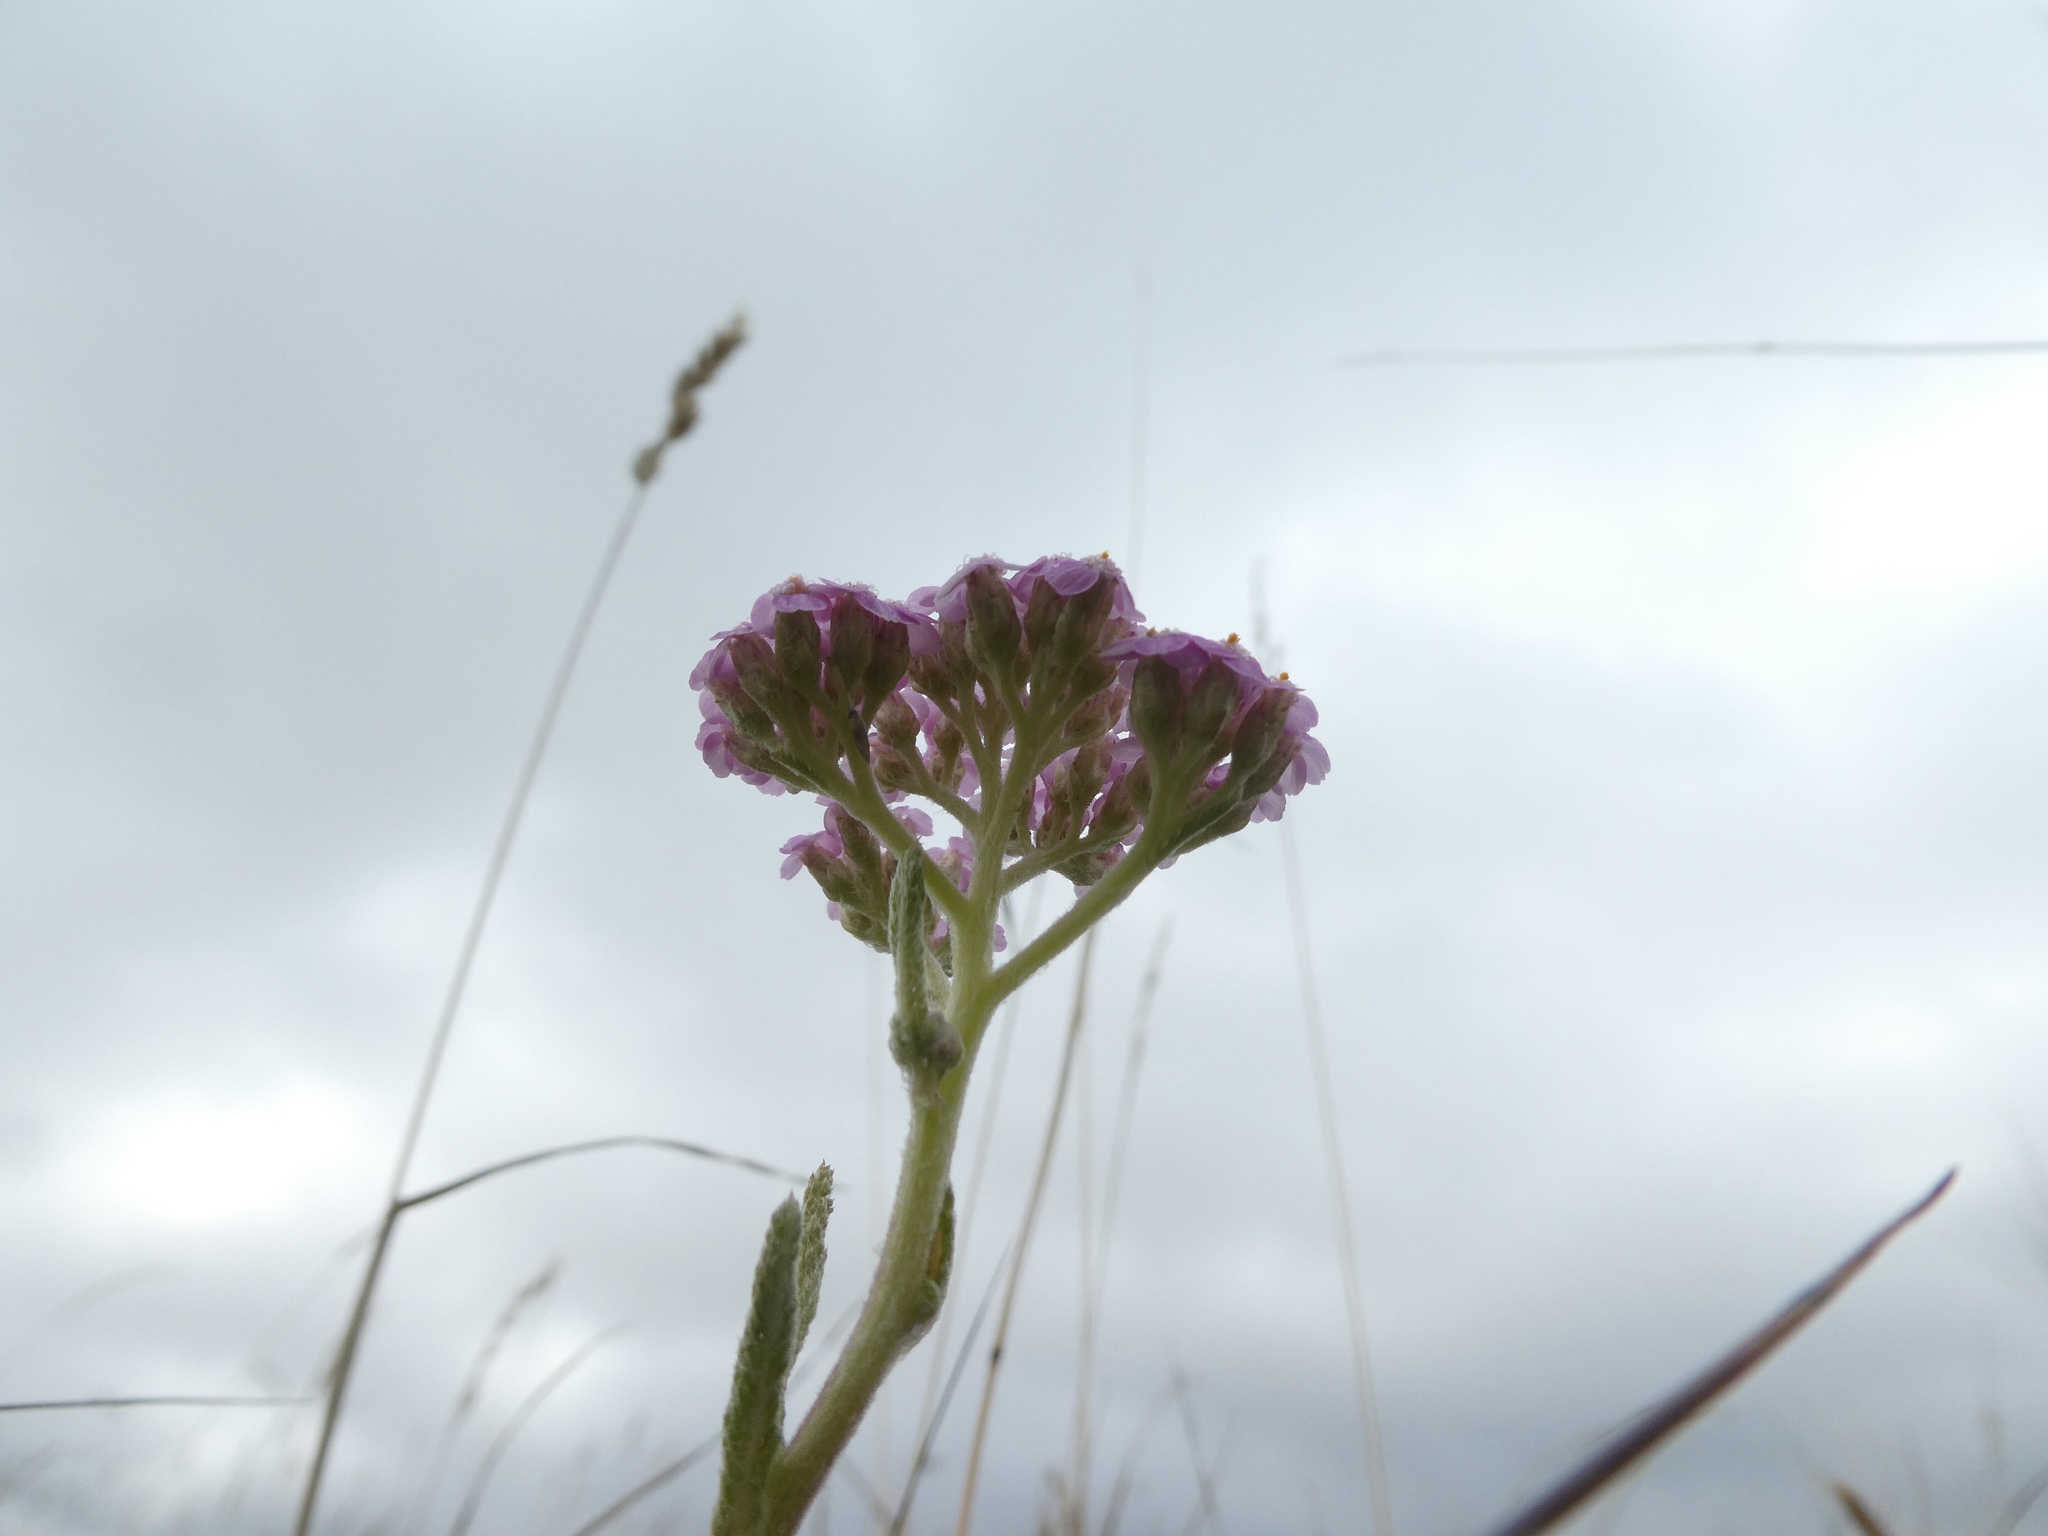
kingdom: Plantae
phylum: Tracheophyta
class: Magnoliopsida
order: Asterales
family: Asteraceae
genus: Achillea
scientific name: Achillea millefolium
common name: Yarrow
